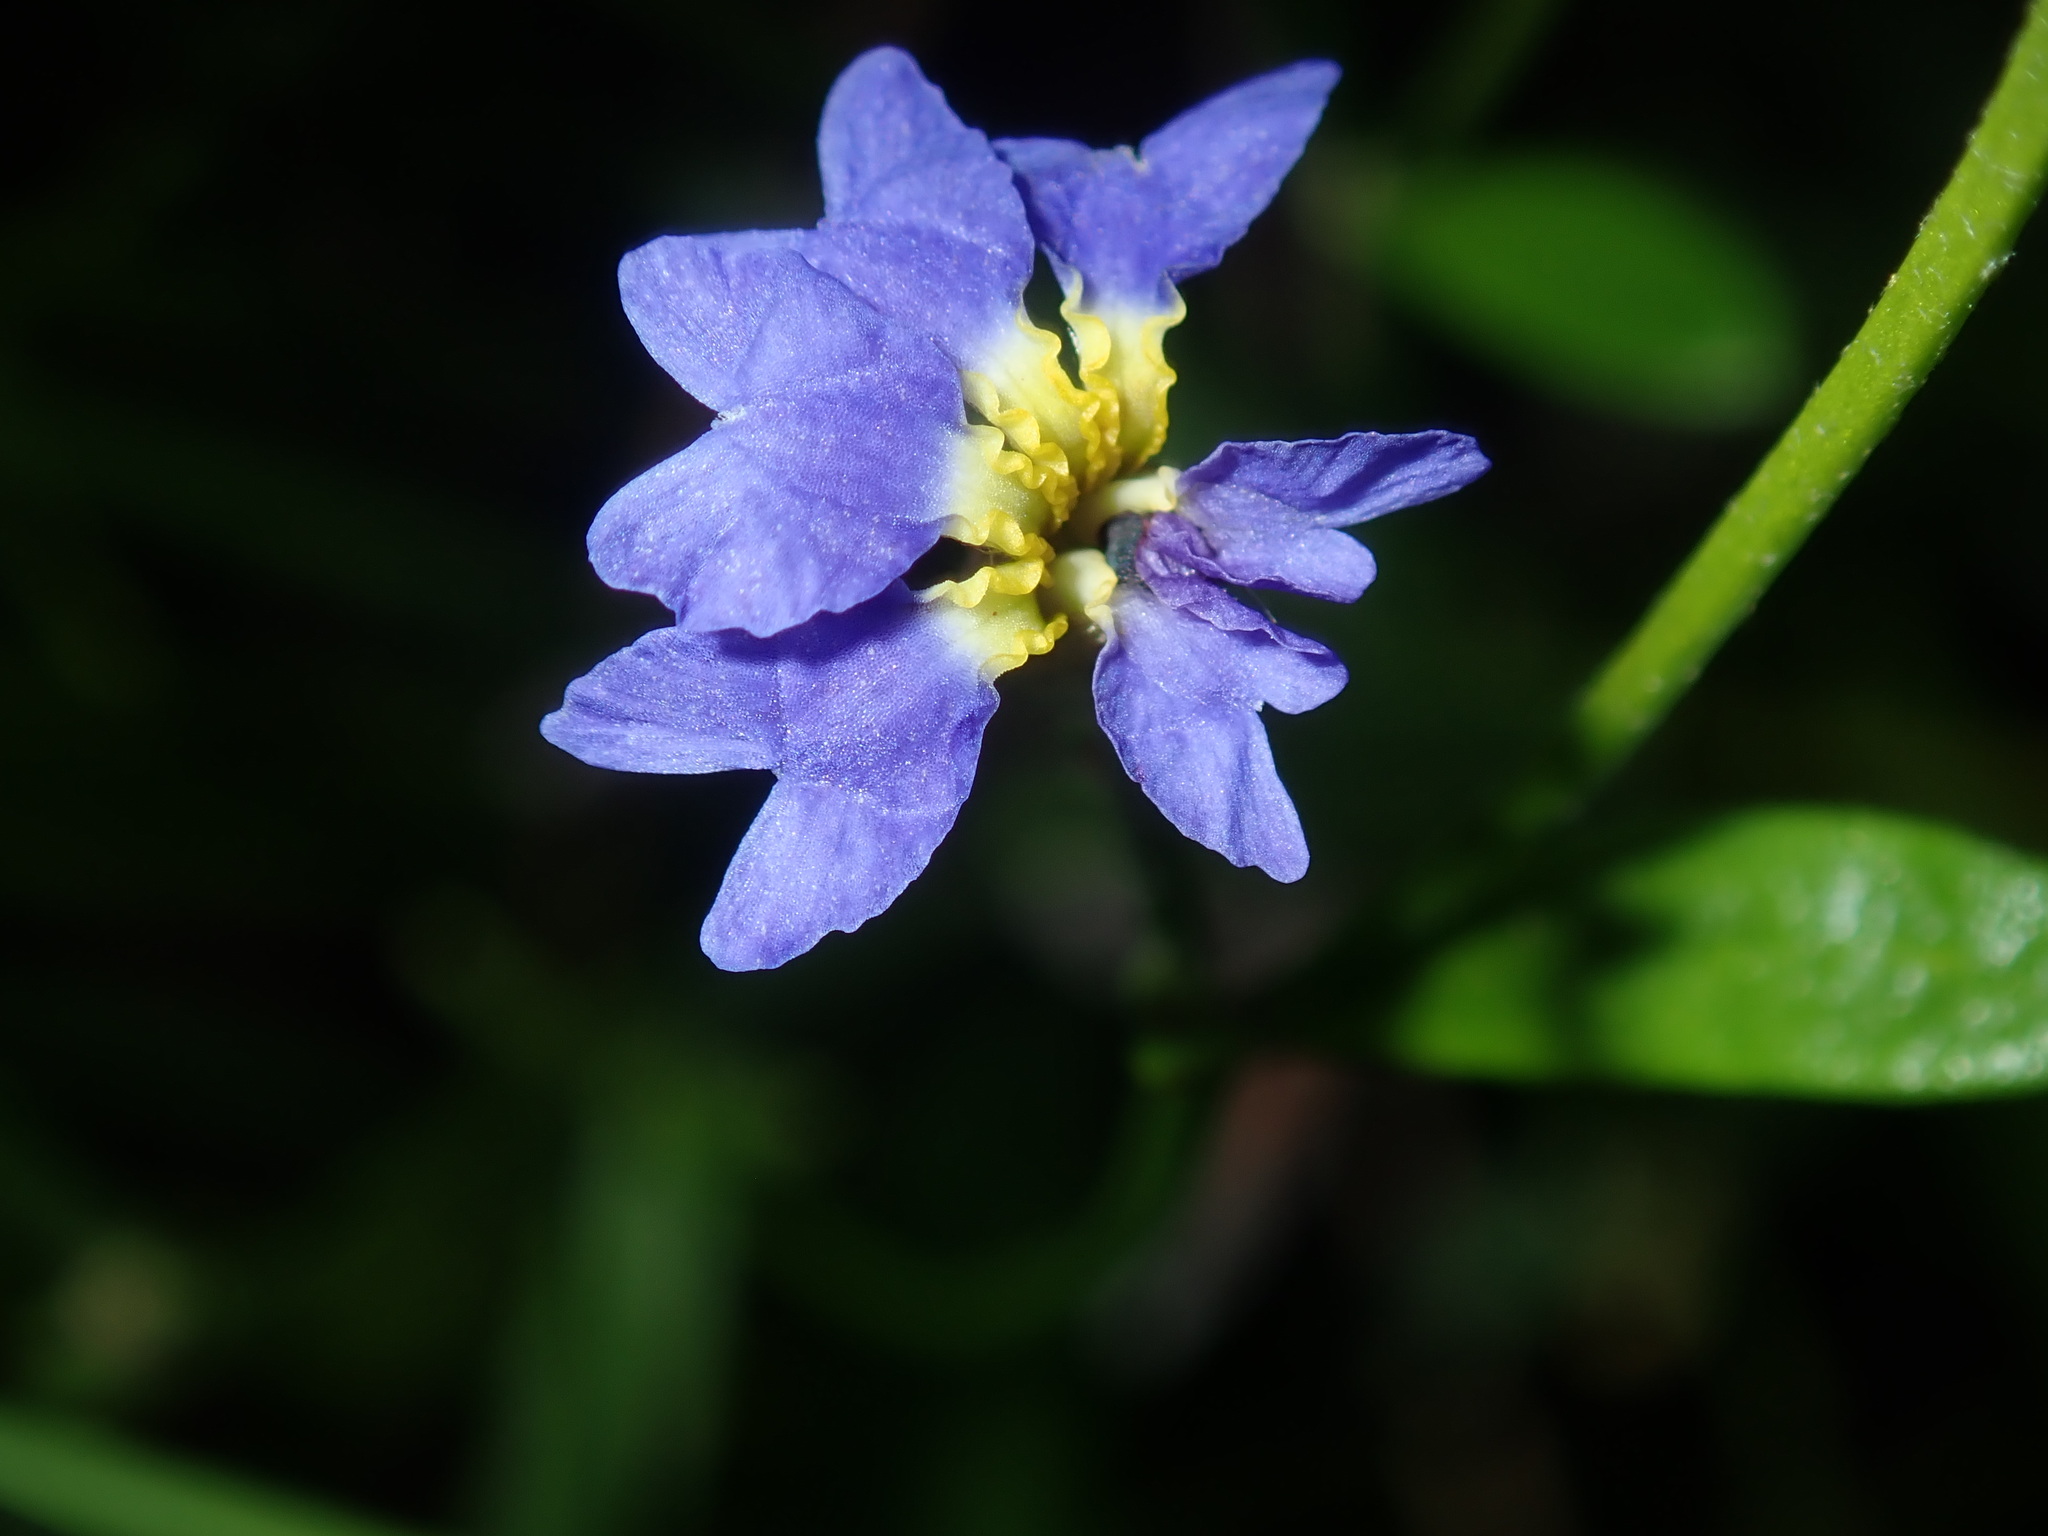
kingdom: Plantae
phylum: Tracheophyta
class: Magnoliopsida
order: Asterales
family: Goodeniaceae
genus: Dampiera
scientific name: Dampiera stricta
